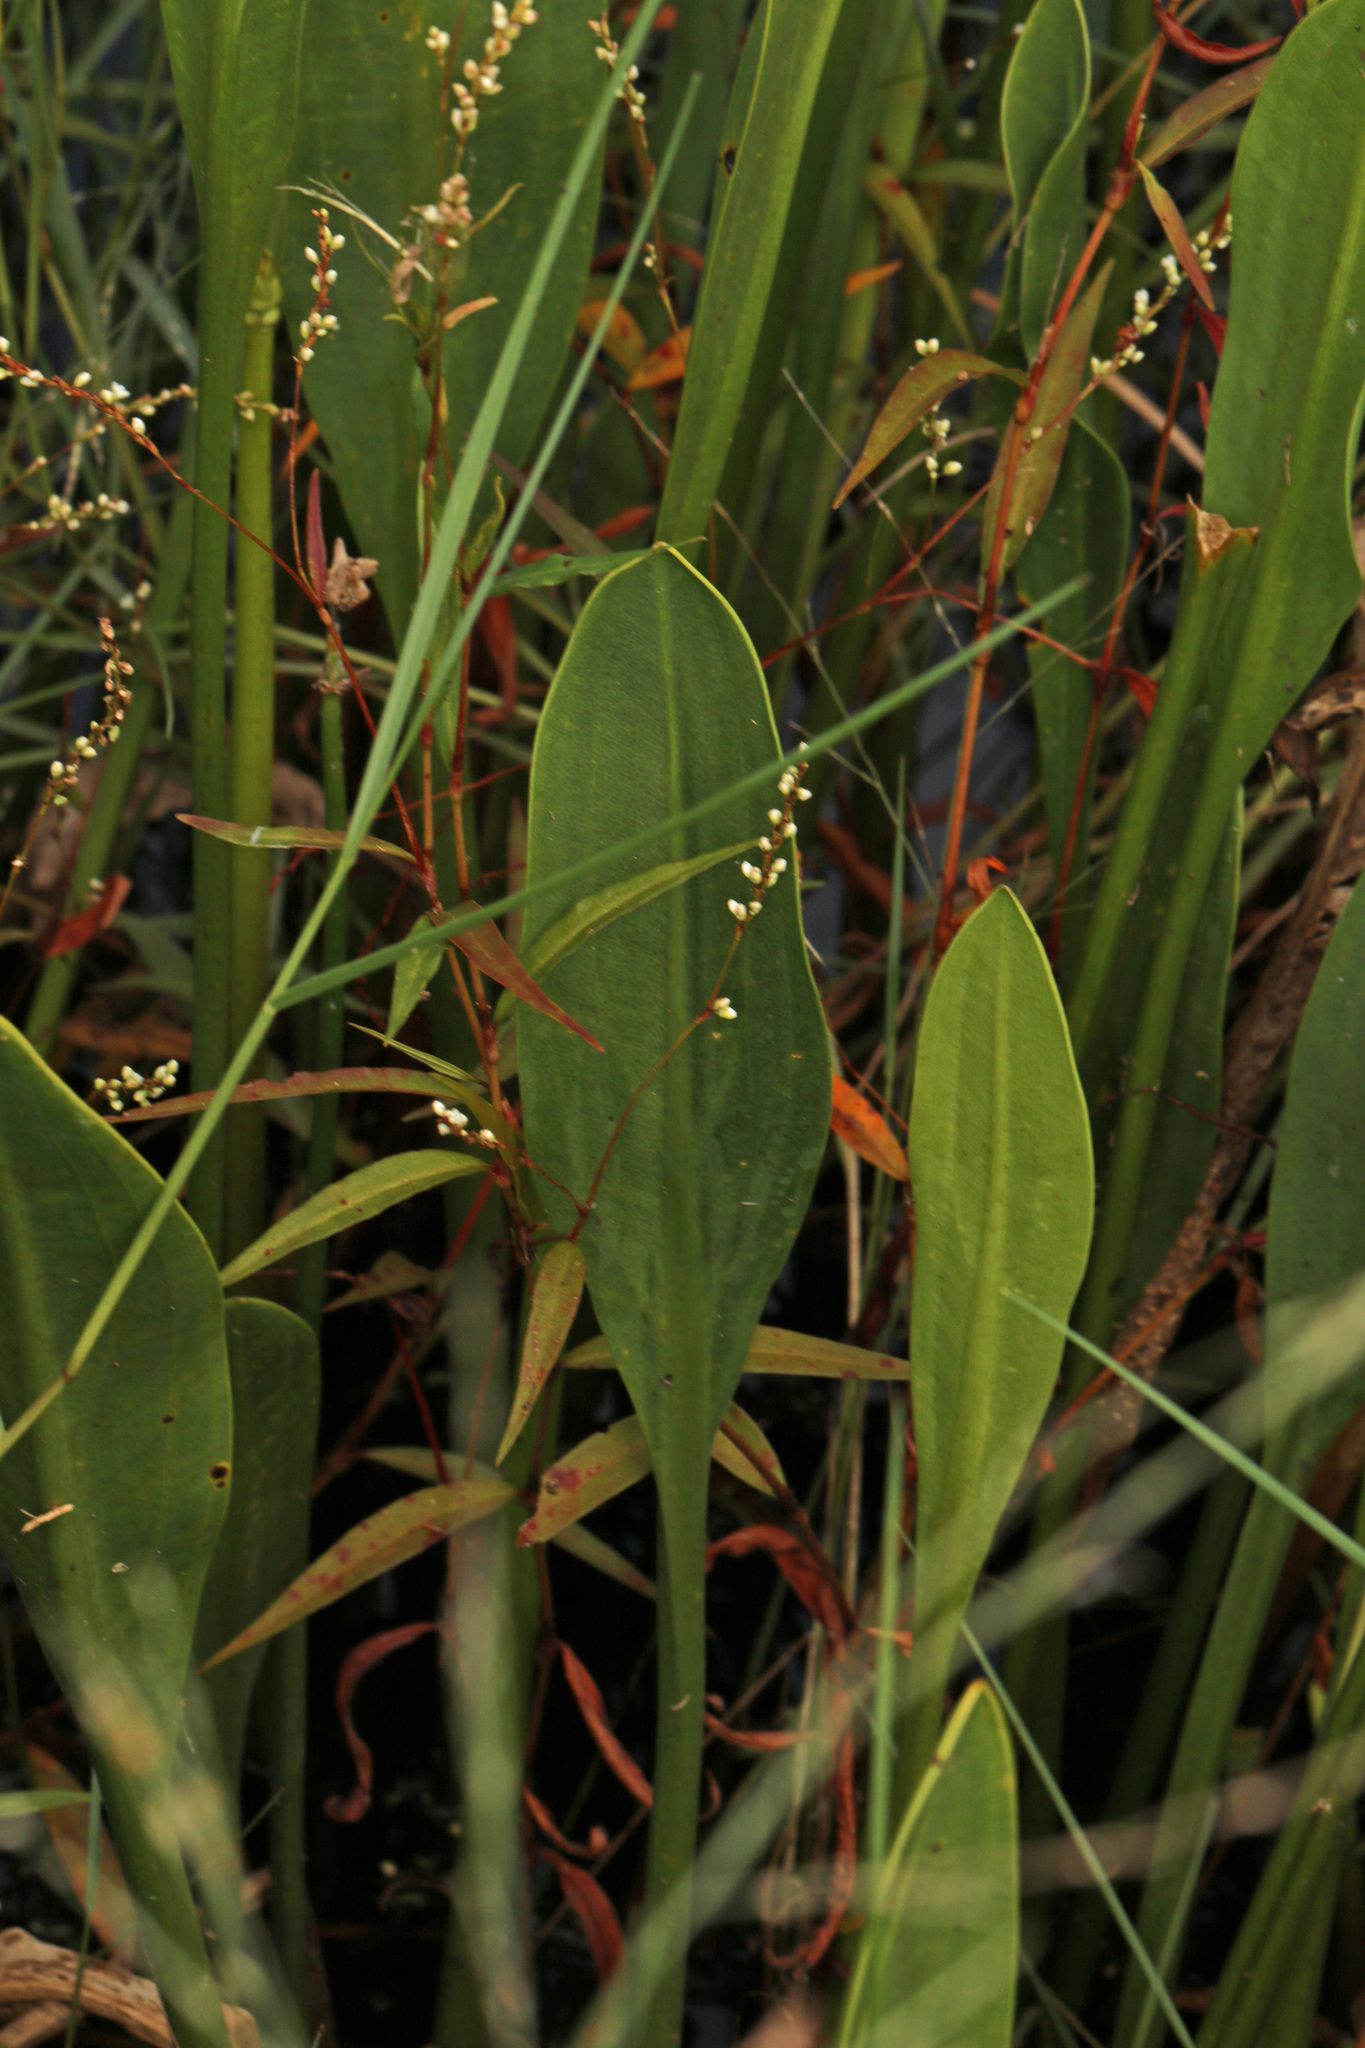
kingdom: Plantae
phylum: Tracheophyta
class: Liliopsida
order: Alismatales
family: Alismataceae
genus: Sagittaria
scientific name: Sagittaria lancifolia
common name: Lance-leaf arrowhead
